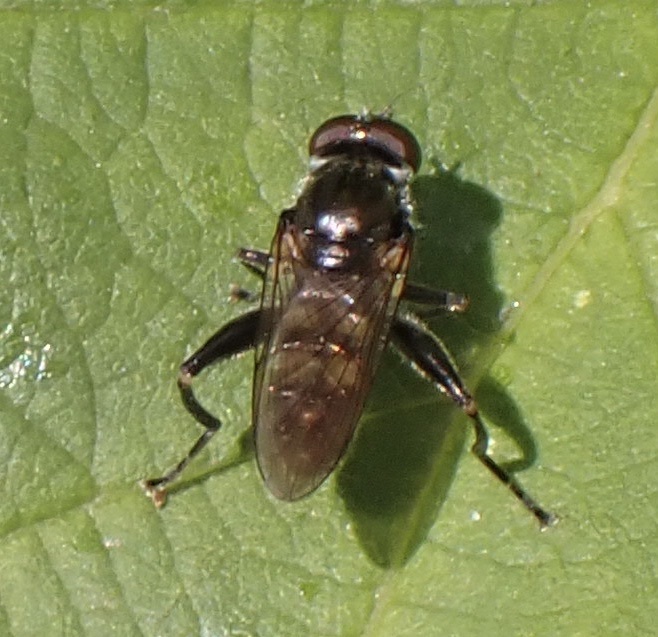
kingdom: Animalia
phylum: Arthropoda
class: Insecta
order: Diptera
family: Syrphidae
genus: Chalcosyrphus
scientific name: Chalcosyrphus nemorum
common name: Dusky-banded forest fly
